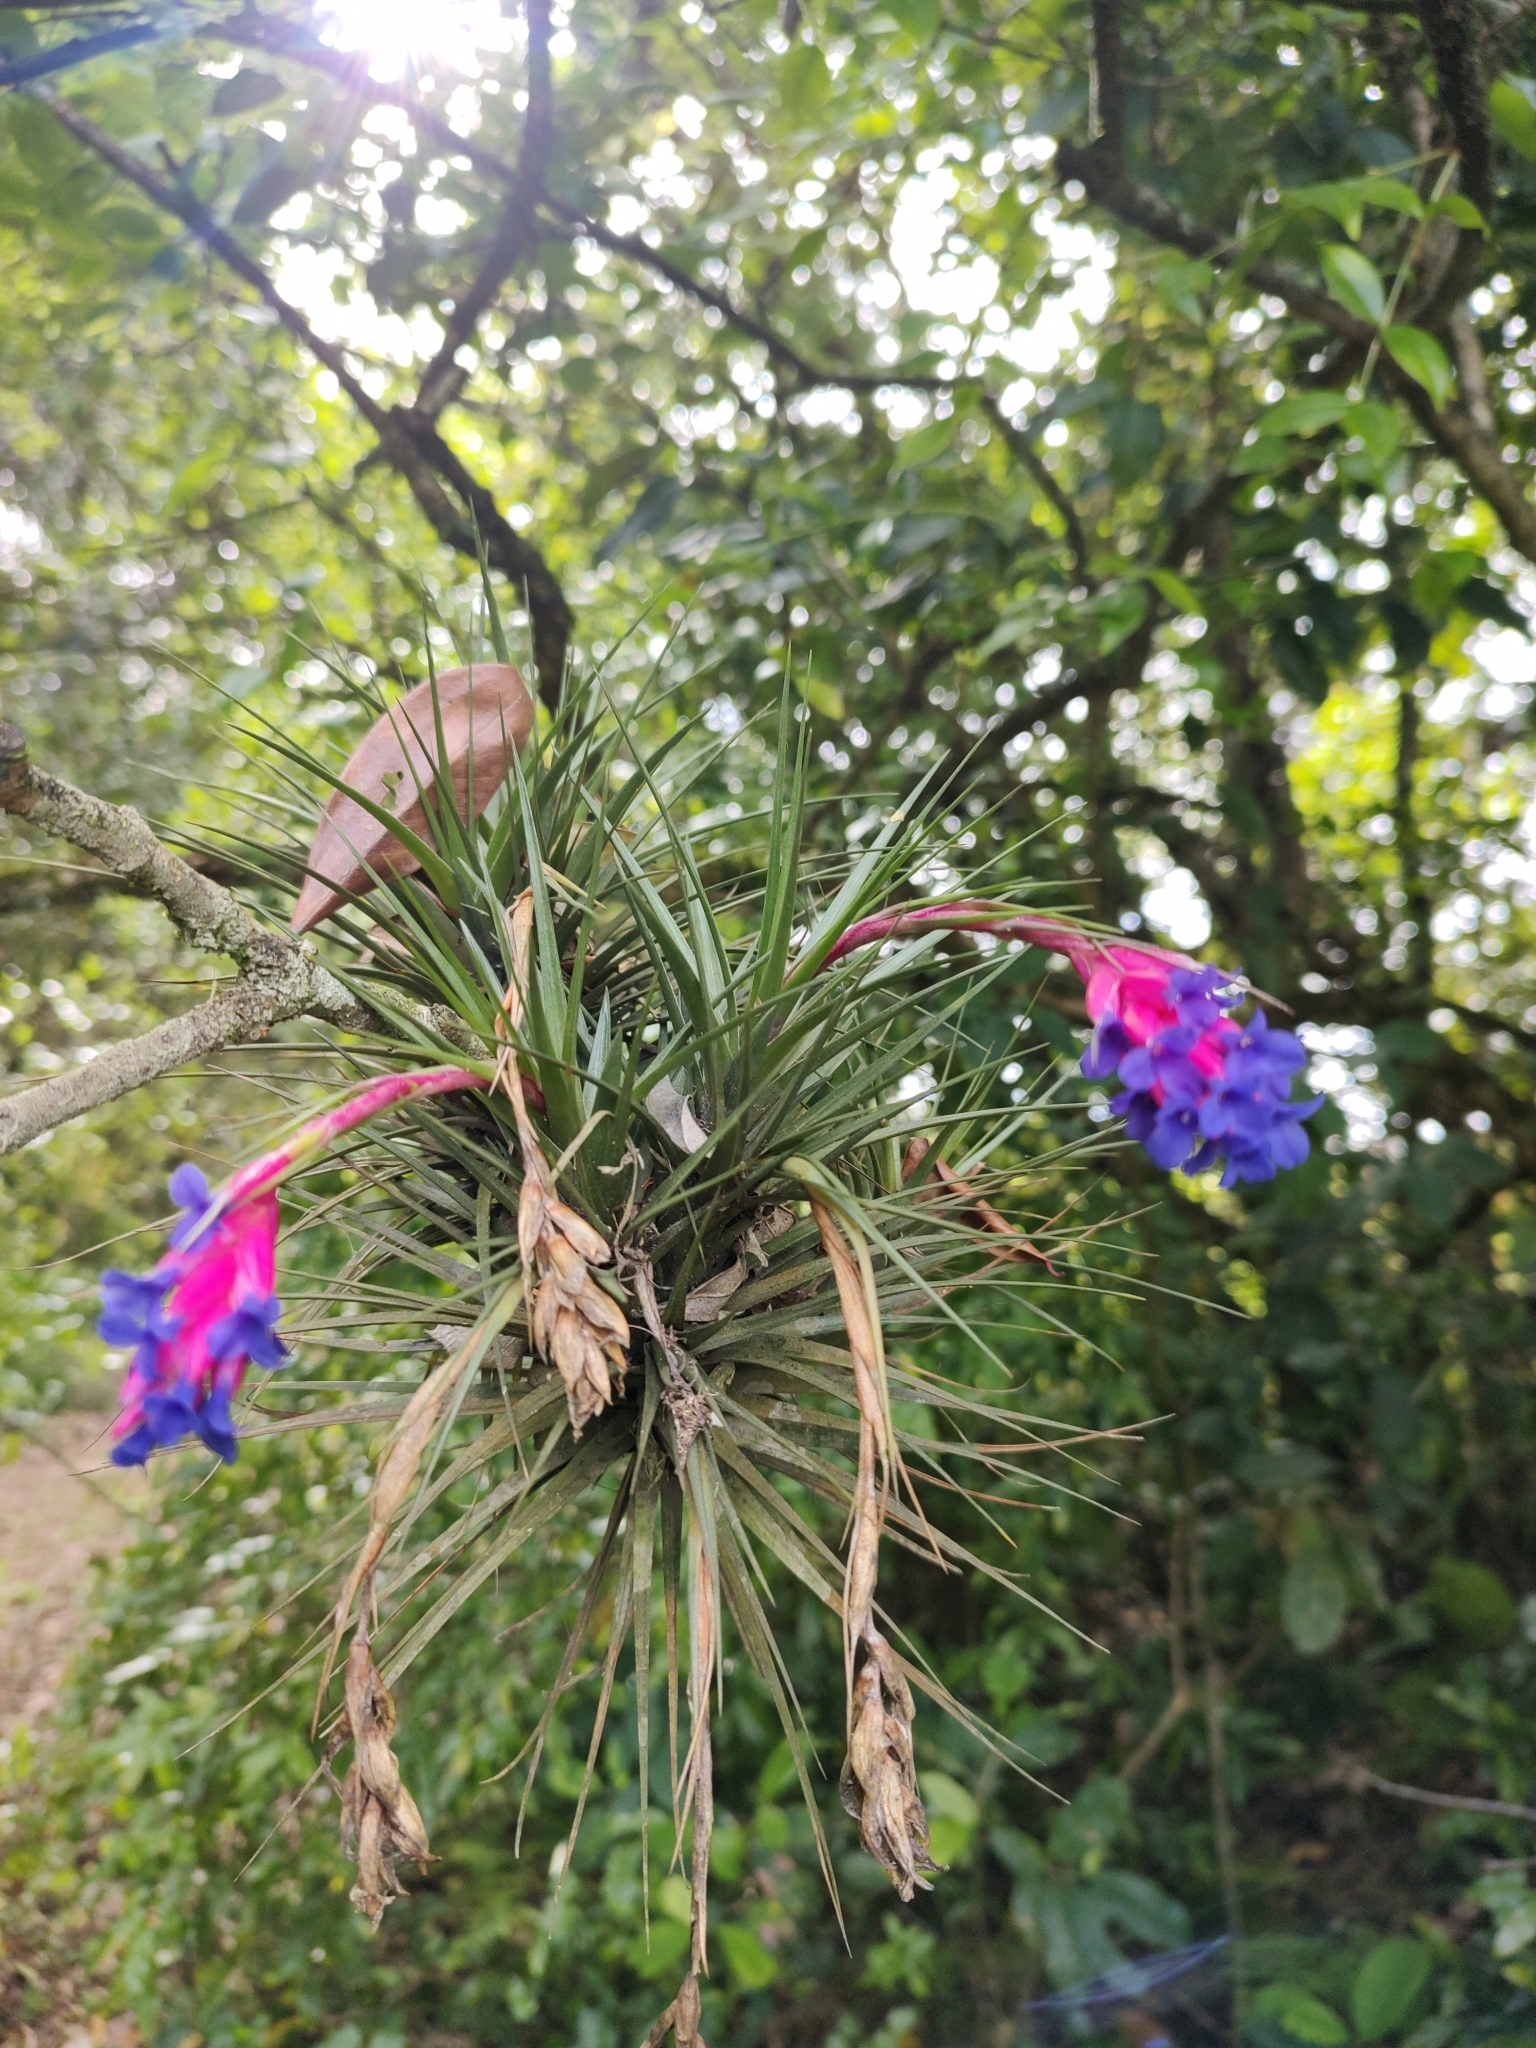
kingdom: Plantae
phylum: Tracheophyta
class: Liliopsida
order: Poales
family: Bromeliaceae
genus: Tillandsia
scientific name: Tillandsia aeranthos
